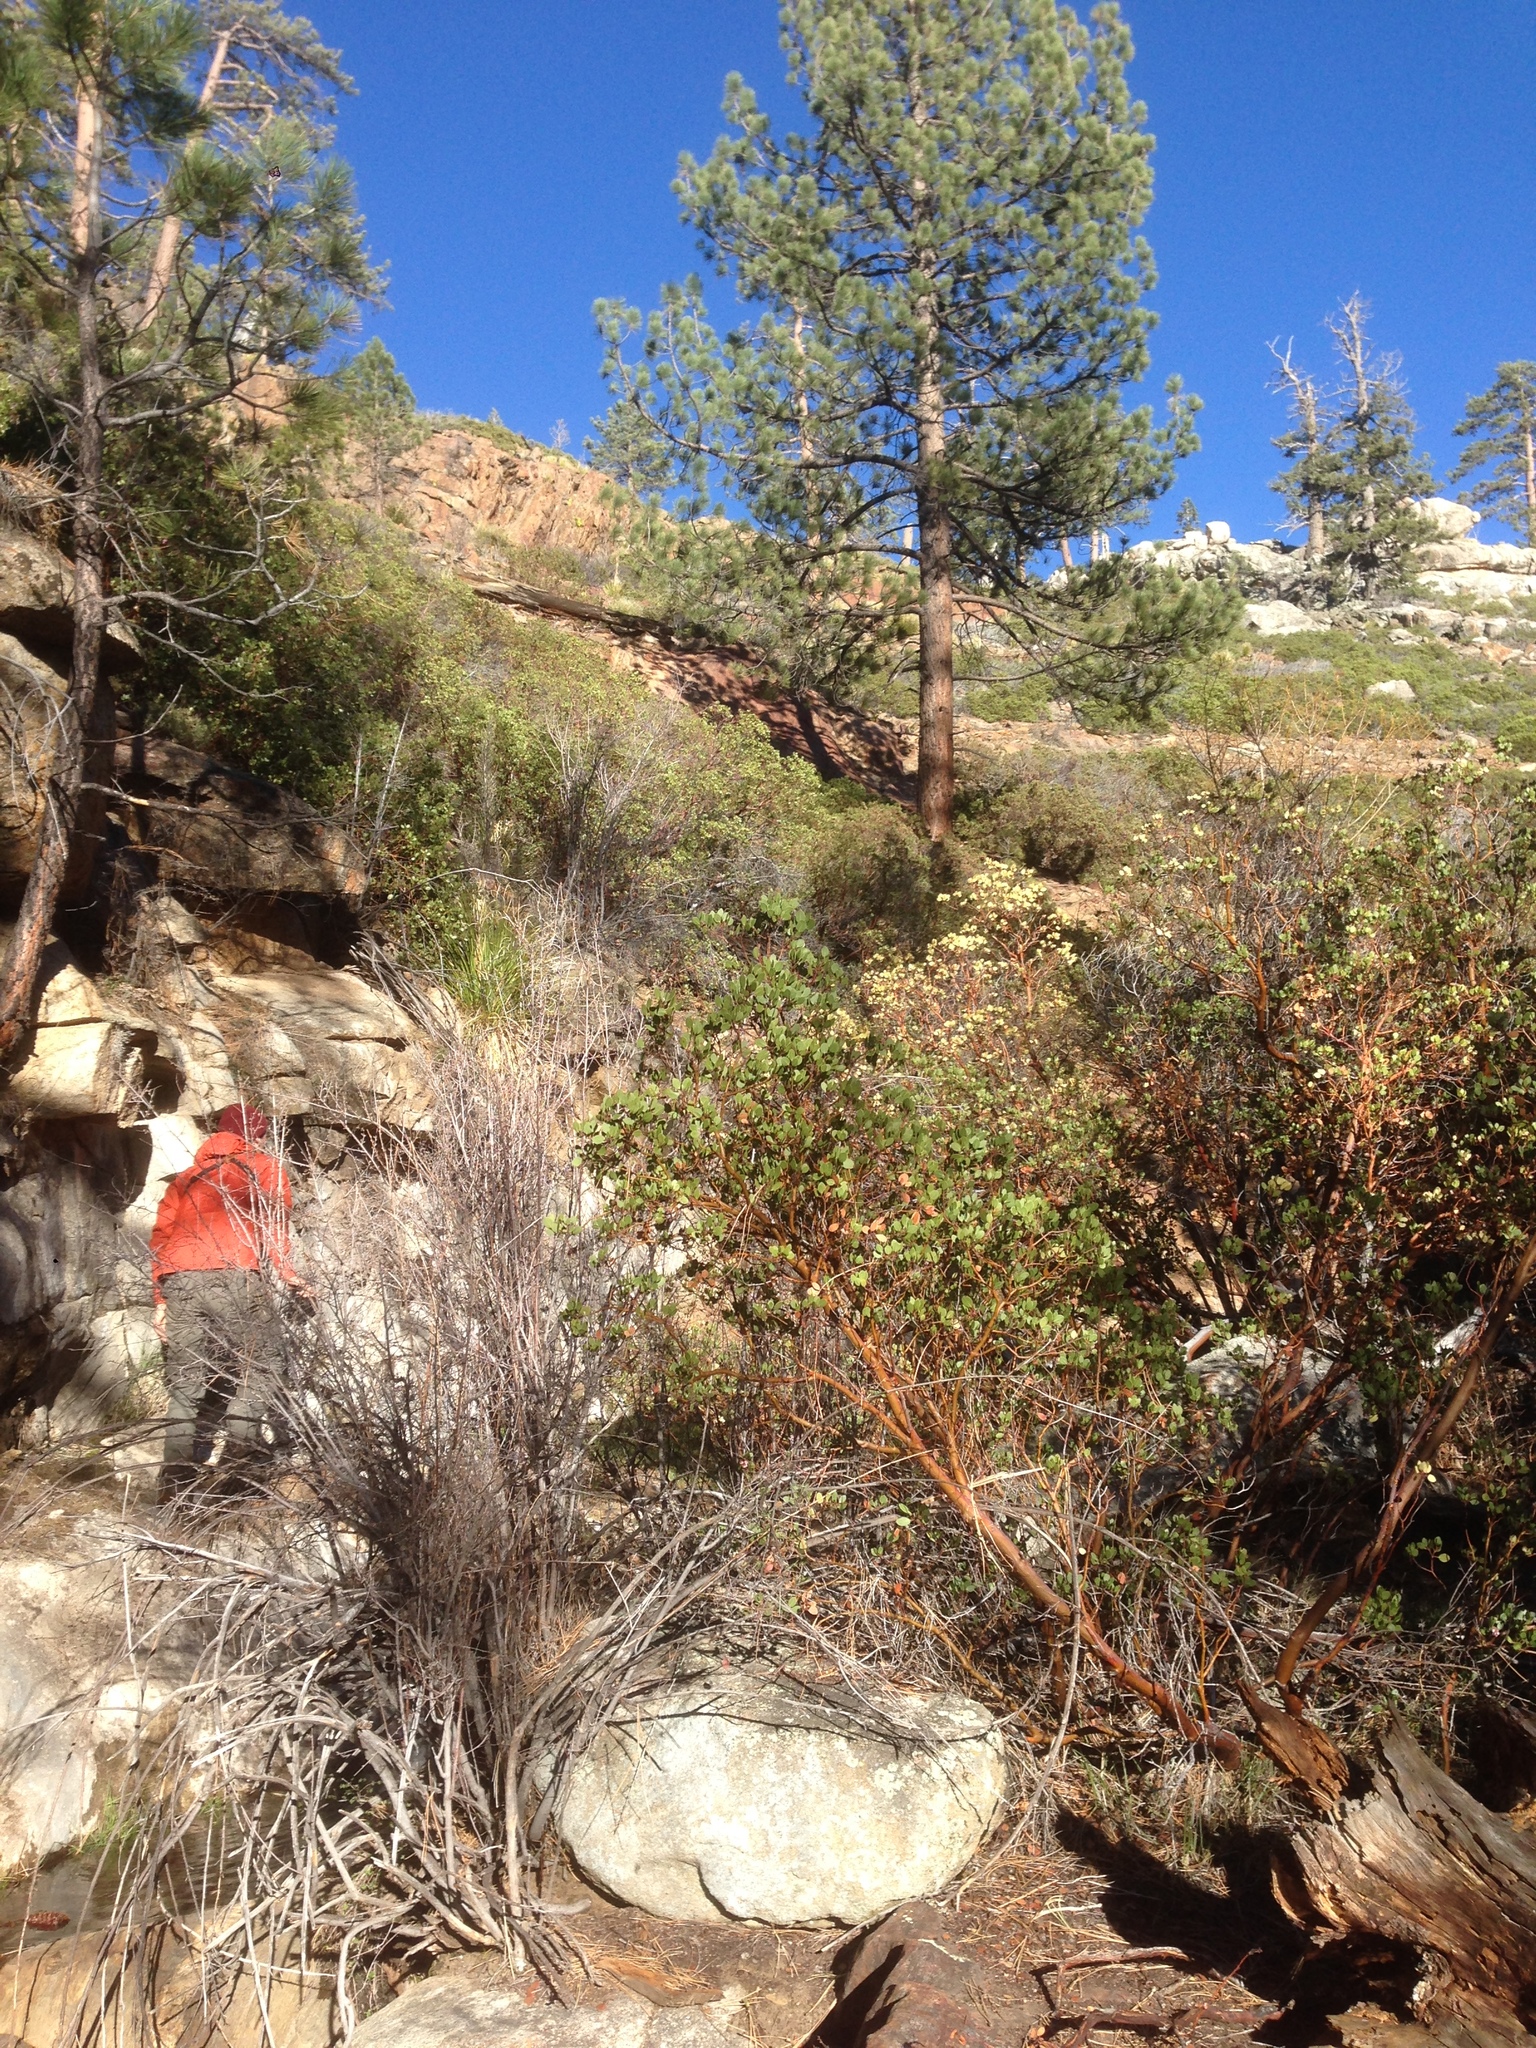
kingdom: Plantae
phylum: Tracheophyta
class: Magnoliopsida
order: Ericales
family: Ericaceae
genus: Arctostaphylos
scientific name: Arctostaphylos pungens
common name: Mexican manzanita
